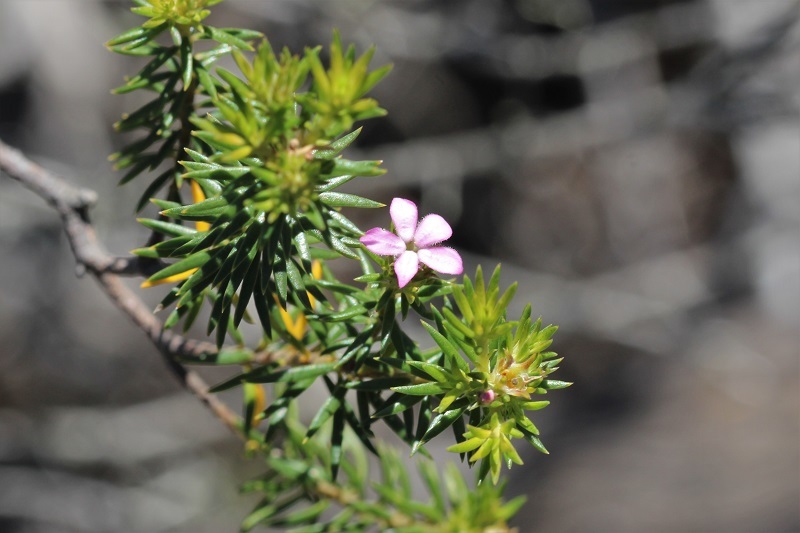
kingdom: Plantae
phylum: Tracheophyta
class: Magnoliopsida
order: Sapindales
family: Rutaceae
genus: Acmadenia
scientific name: Acmadenia alternifolia
